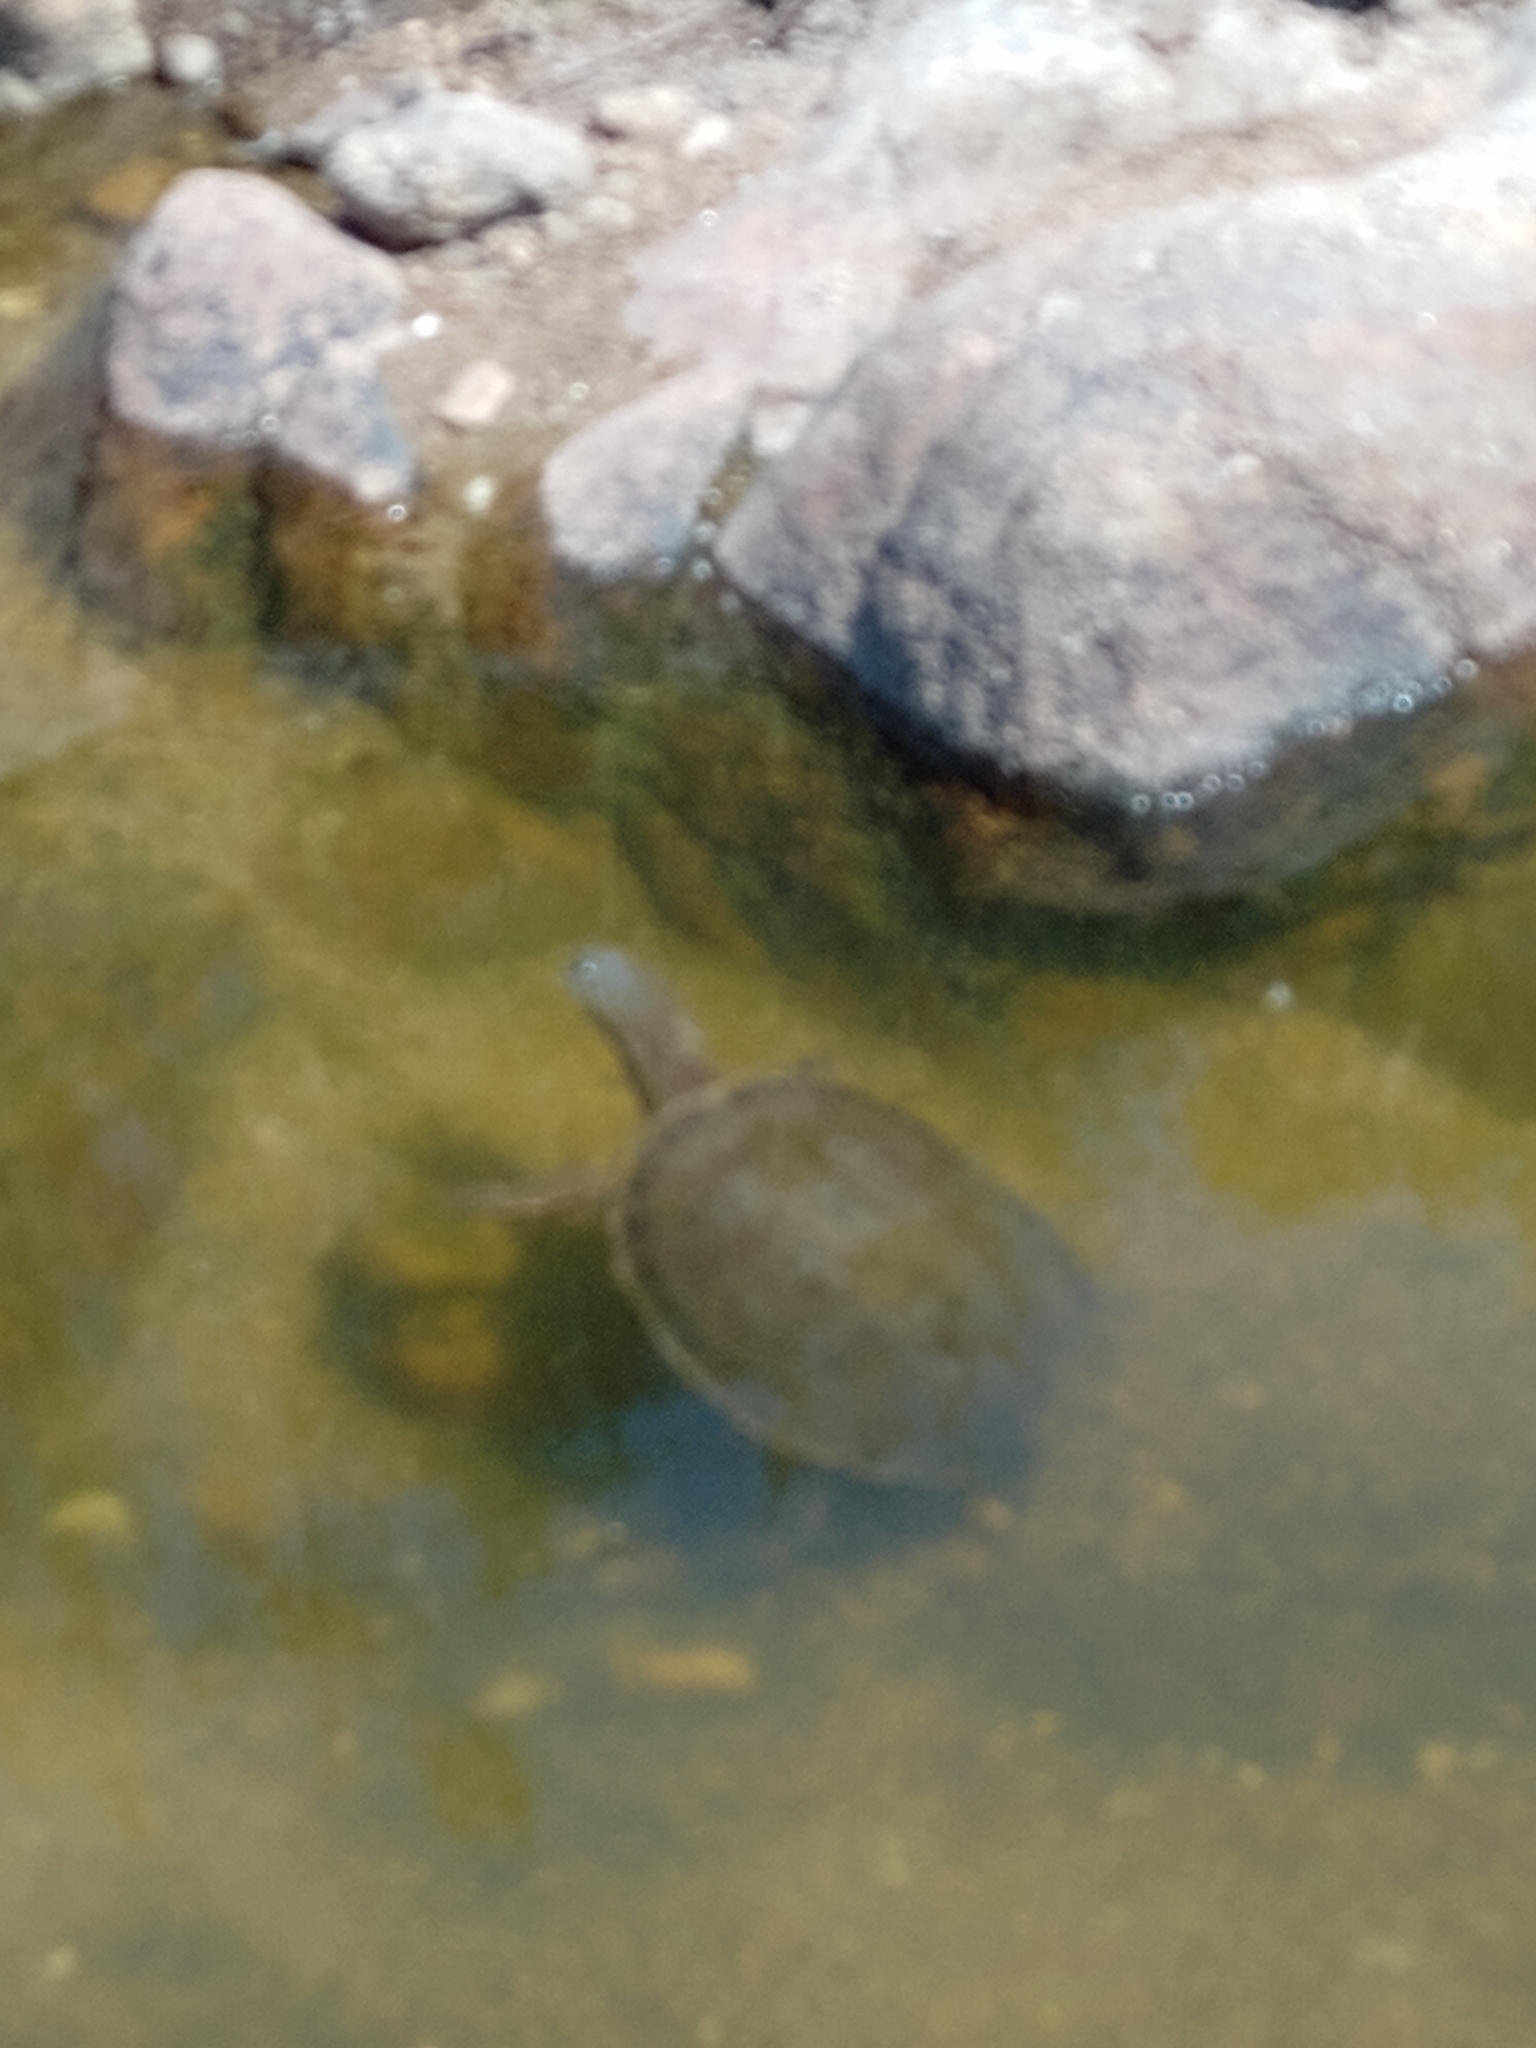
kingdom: Animalia
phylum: Chordata
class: Testudines
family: Chelidae
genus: Phrynops
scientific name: Phrynops hilarii
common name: Side-necked turtle of saint hillaire
